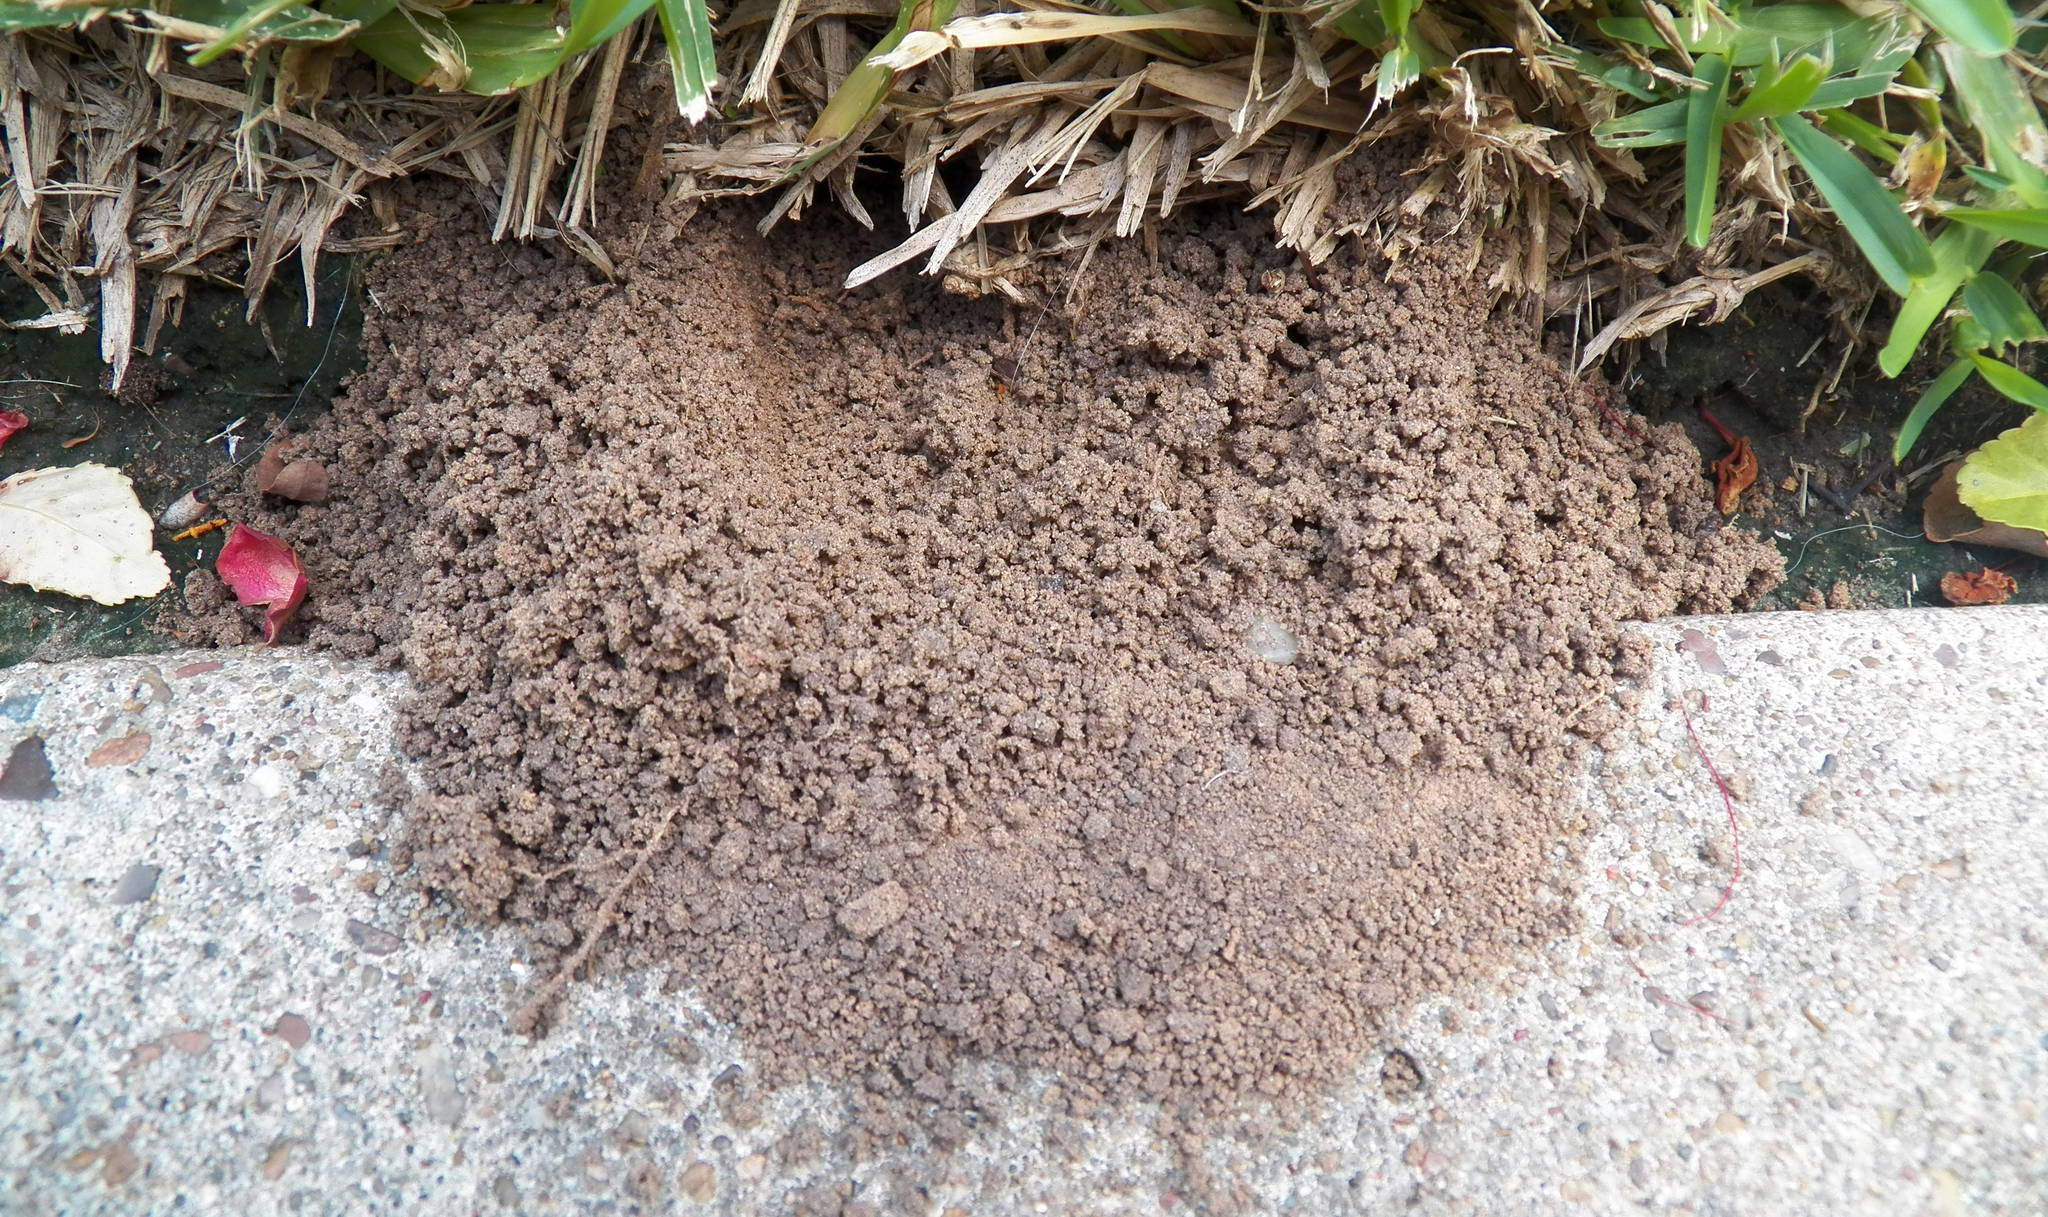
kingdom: Animalia
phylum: Arthropoda
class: Insecta
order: Hymenoptera
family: Crabronidae
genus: Sphecius
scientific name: Sphecius speciosus
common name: Cicada killer
